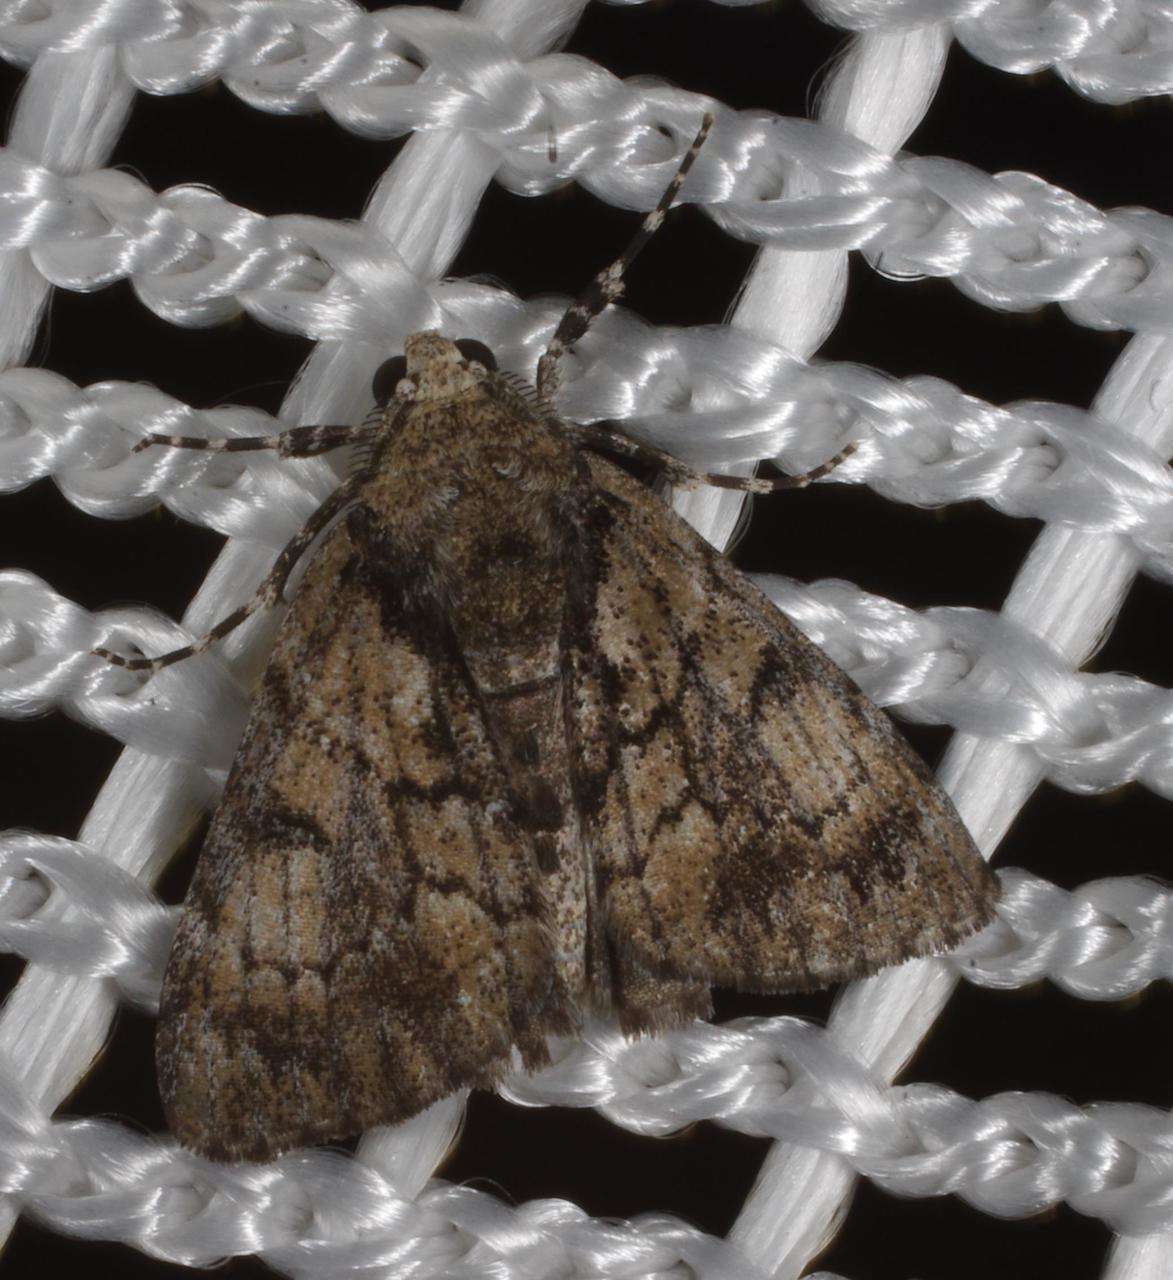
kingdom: Animalia
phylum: Arthropoda
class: Insecta
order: Lepidoptera
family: Geometridae
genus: Rhuma
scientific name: Rhuma argyraspis
